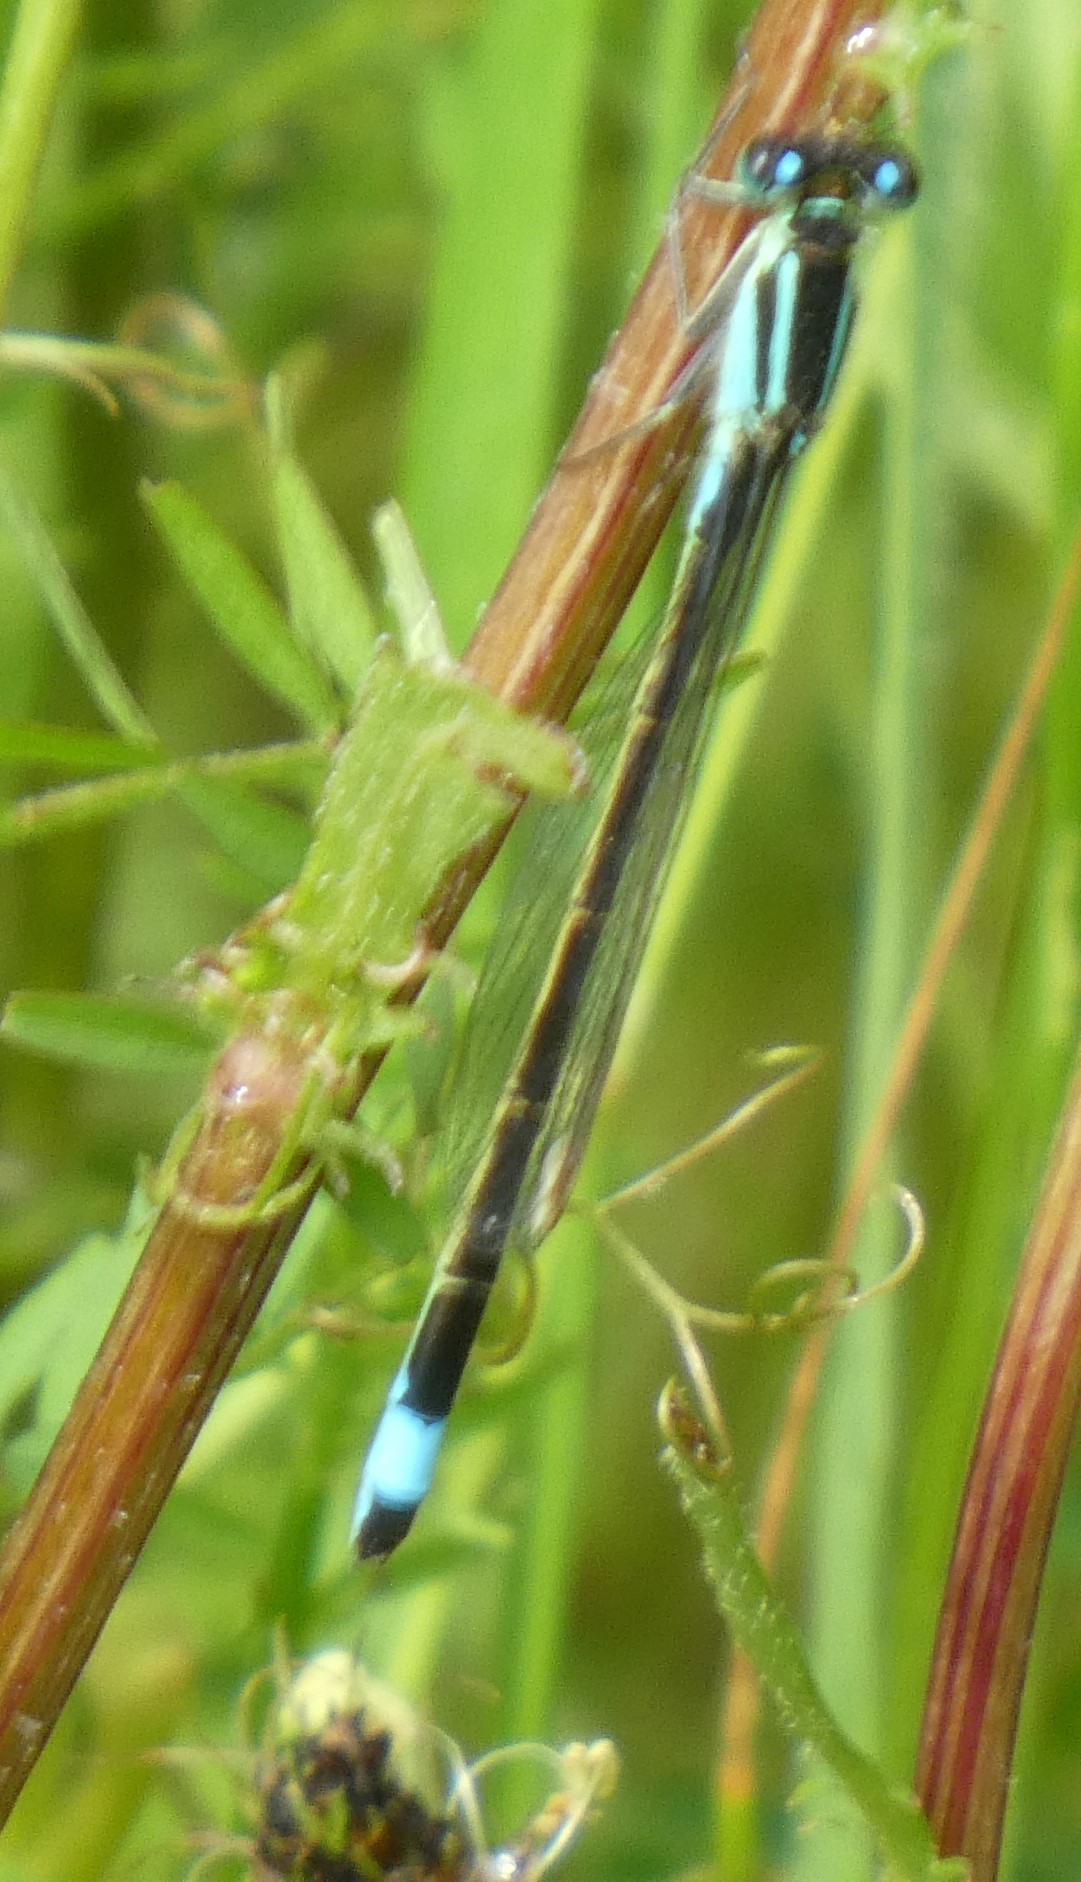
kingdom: Animalia
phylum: Arthropoda
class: Insecta
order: Odonata
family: Coenagrionidae
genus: Ischnura
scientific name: Ischnura elegans
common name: Blue-tailed damselfly
